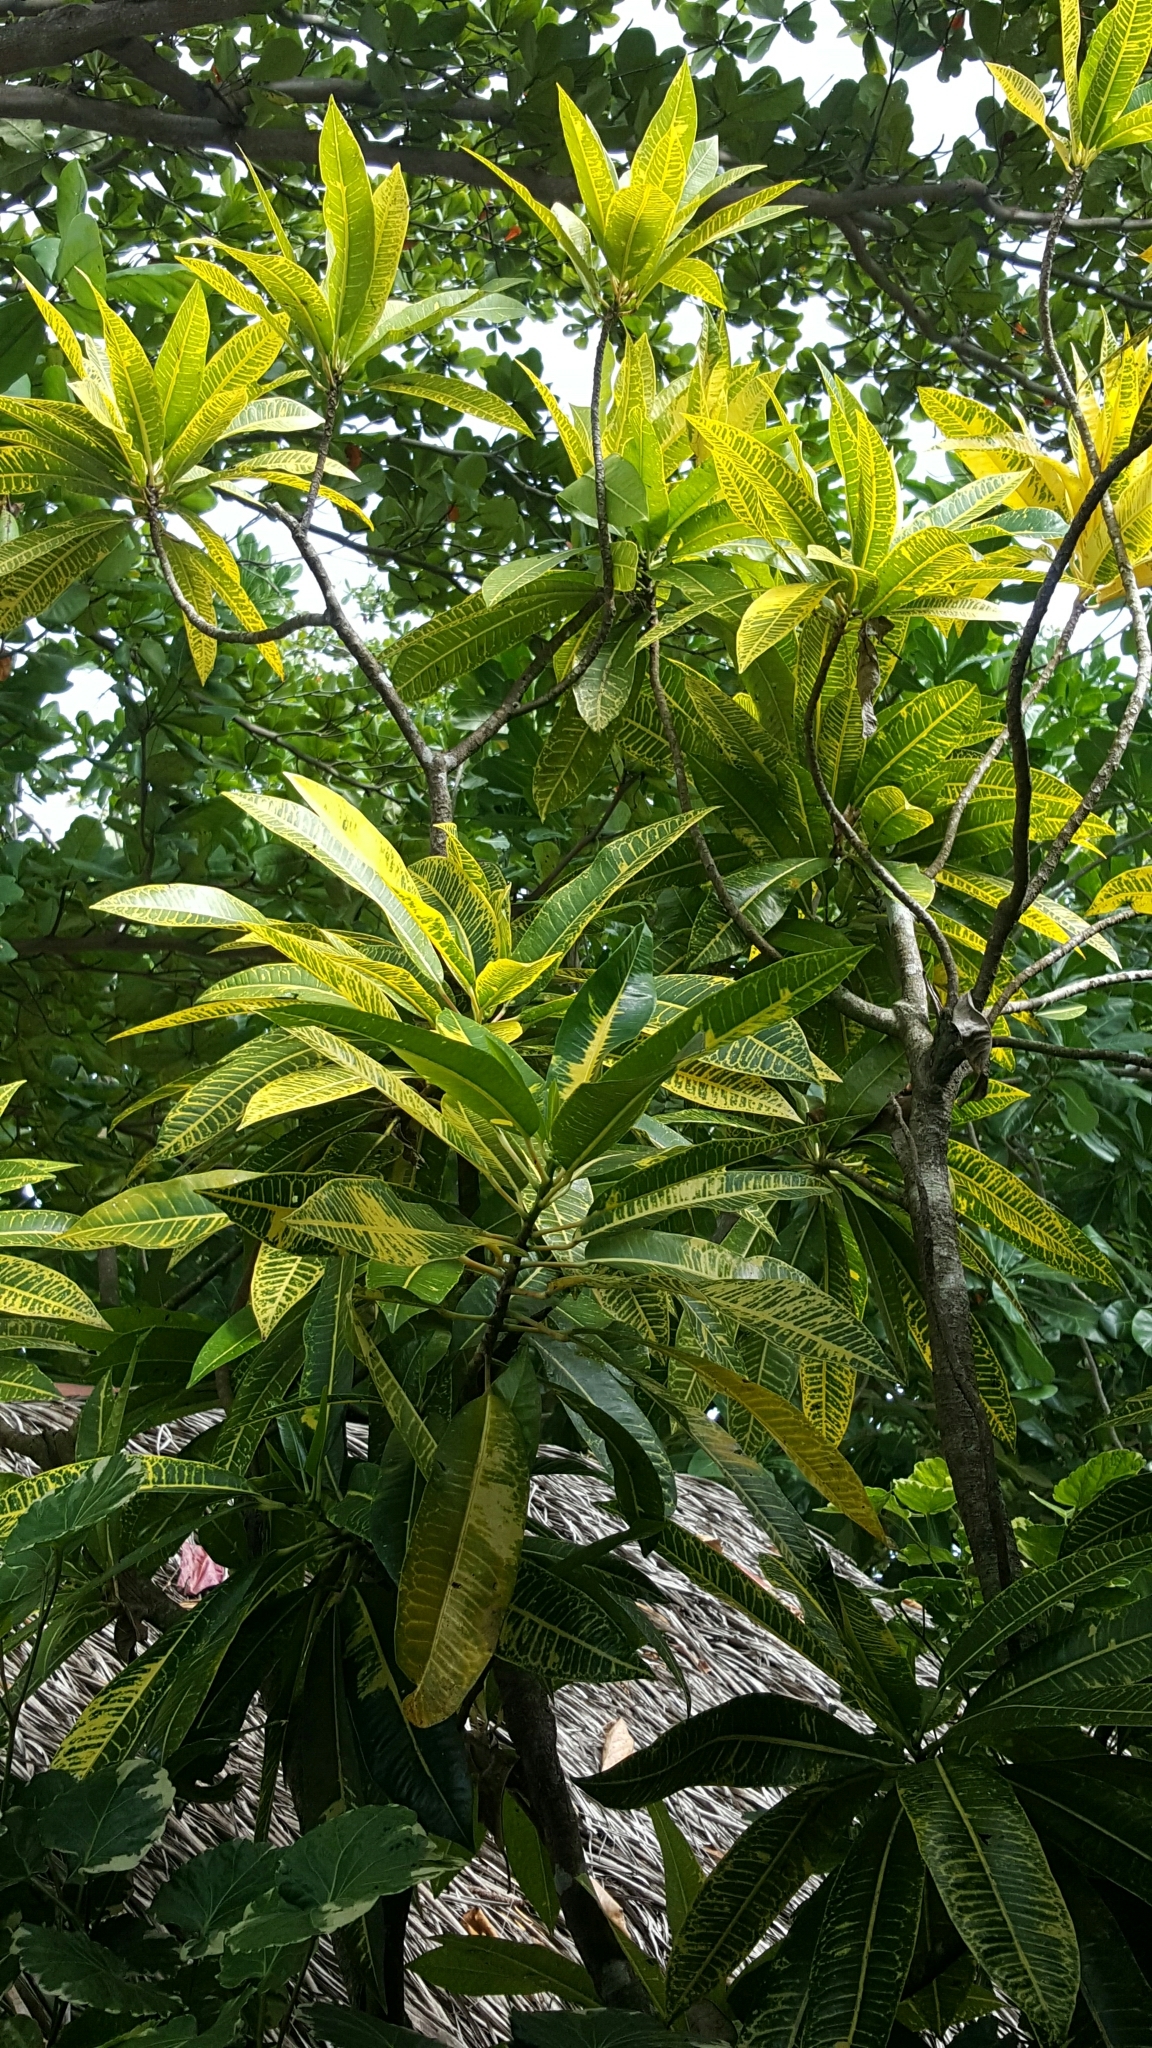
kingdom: Plantae
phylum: Tracheophyta
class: Magnoliopsida
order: Malpighiales
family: Euphorbiaceae
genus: Codiaeum
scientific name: Codiaeum variegatum
